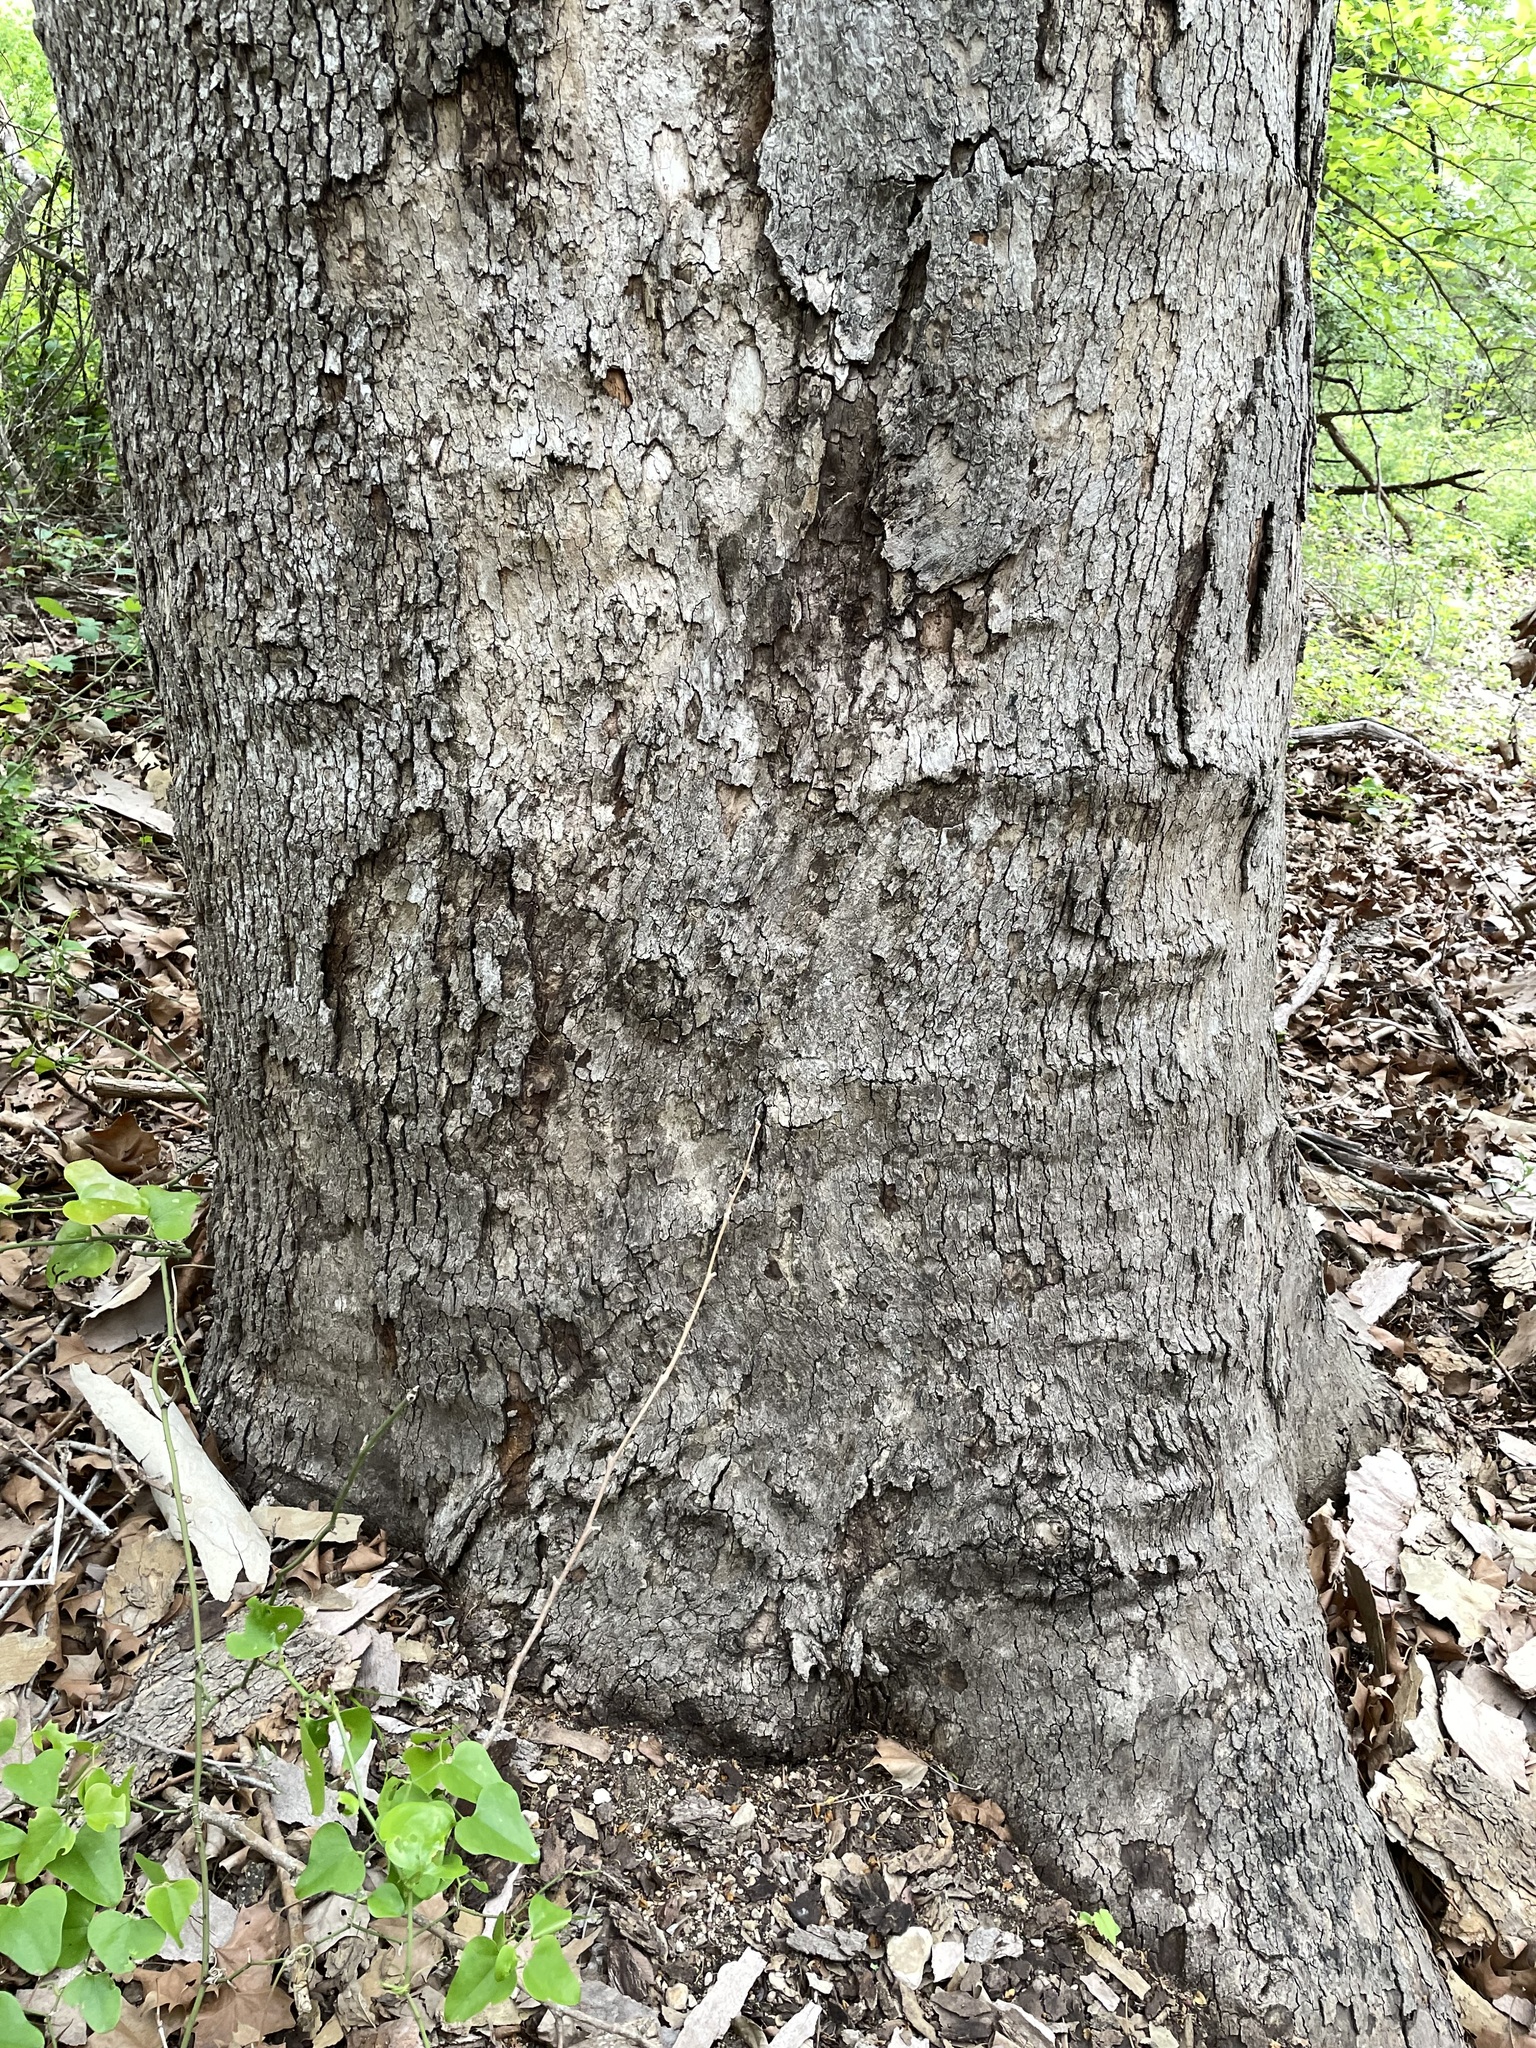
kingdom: Plantae
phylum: Tracheophyta
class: Magnoliopsida
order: Proteales
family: Platanaceae
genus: Platanus
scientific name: Platanus occidentalis
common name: American sycamore
